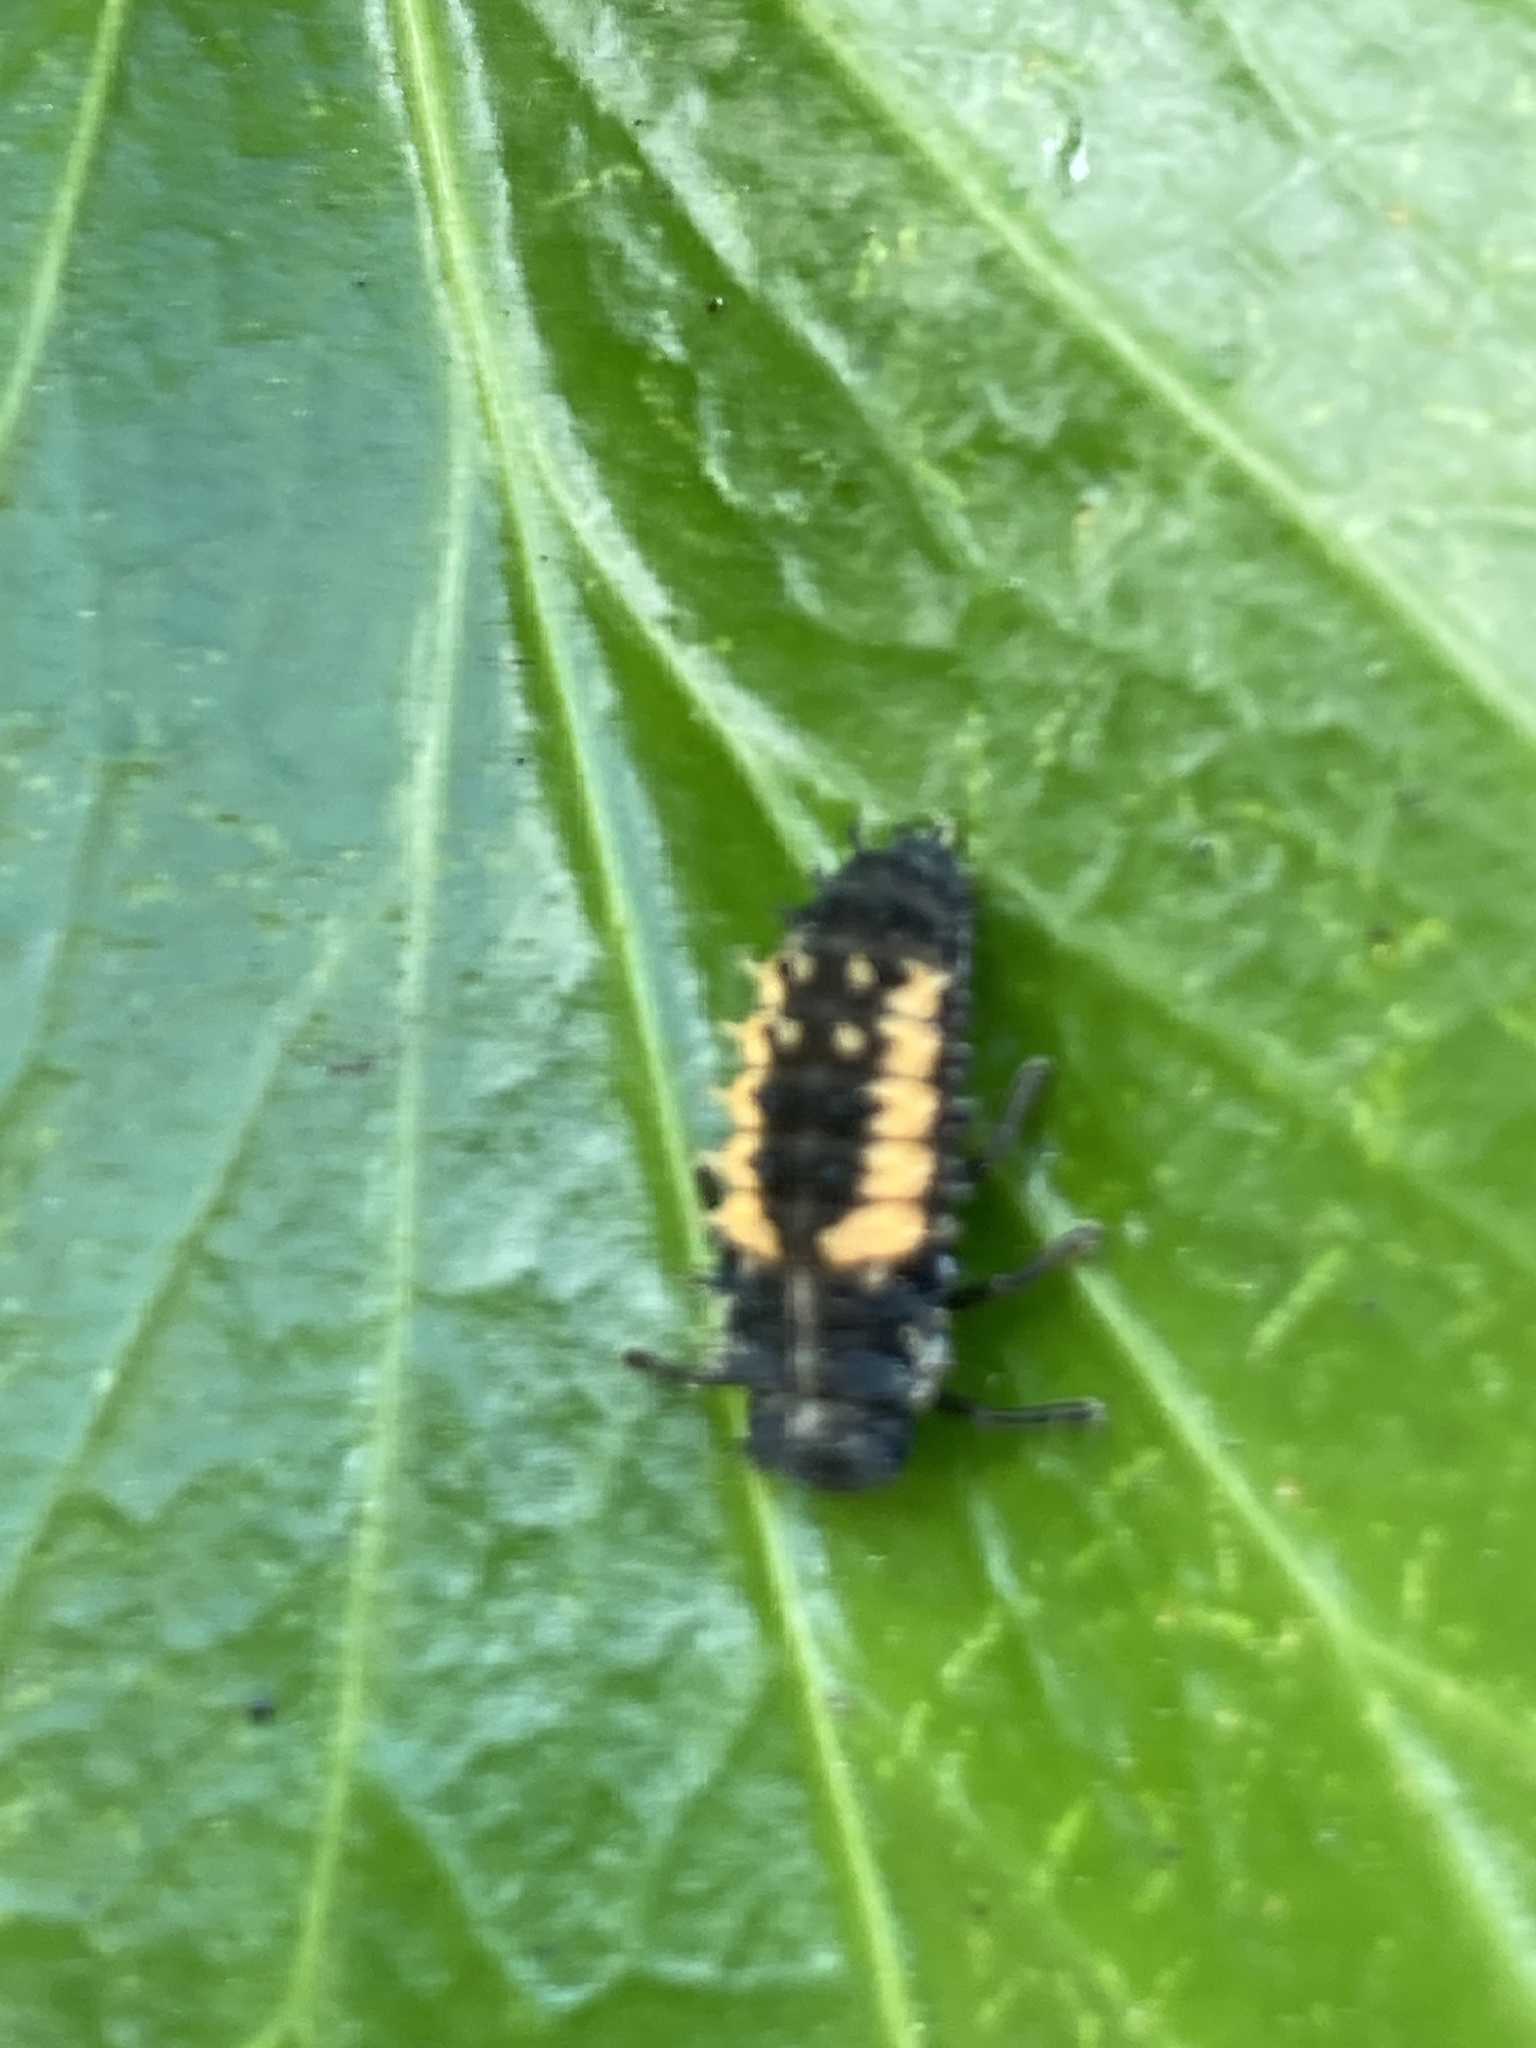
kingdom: Animalia
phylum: Arthropoda
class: Insecta
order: Coleoptera
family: Coccinellidae
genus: Harmonia
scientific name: Harmonia axyridis
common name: Harlequin ladybird
